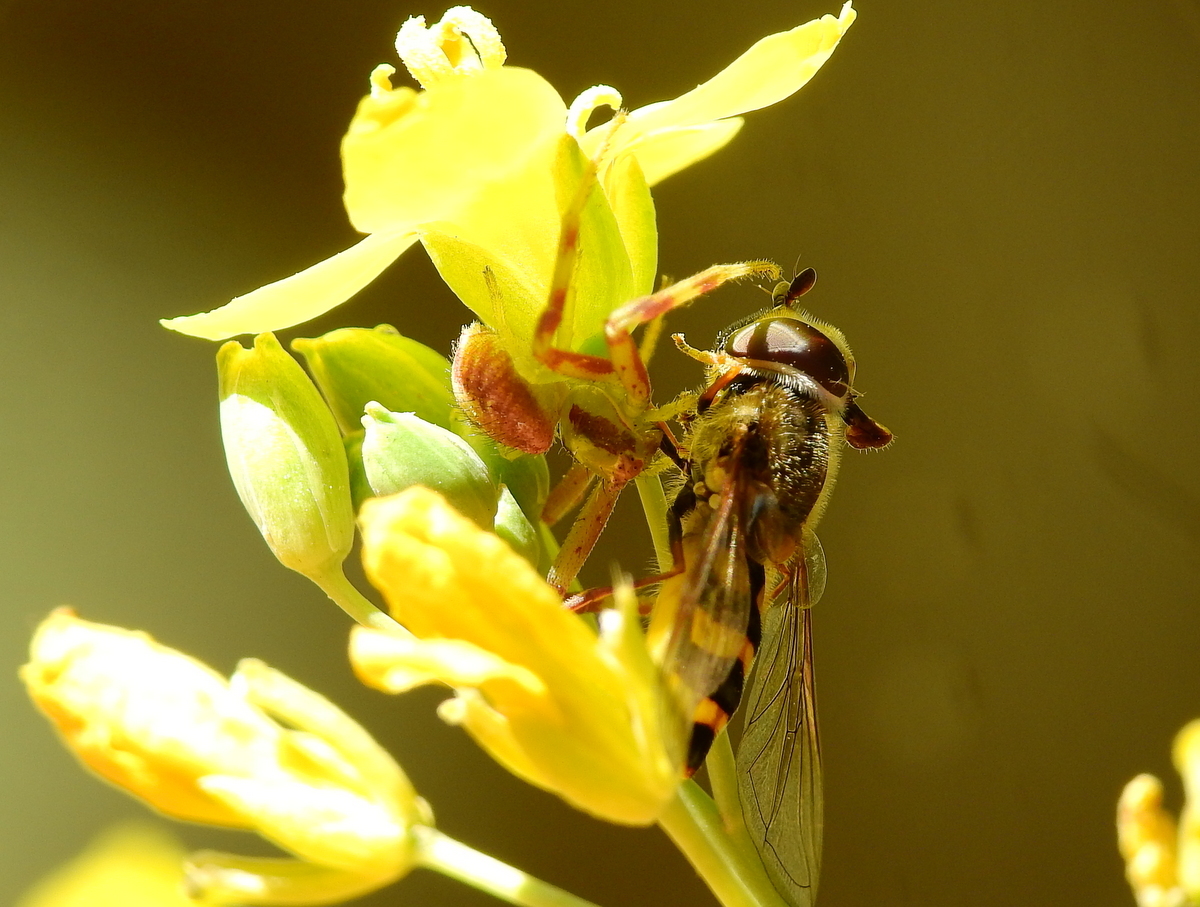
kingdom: Animalia
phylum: Arthropoda
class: Arachnida
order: Araneae
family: Thomisidae
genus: Misumenops
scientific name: Misumenops
